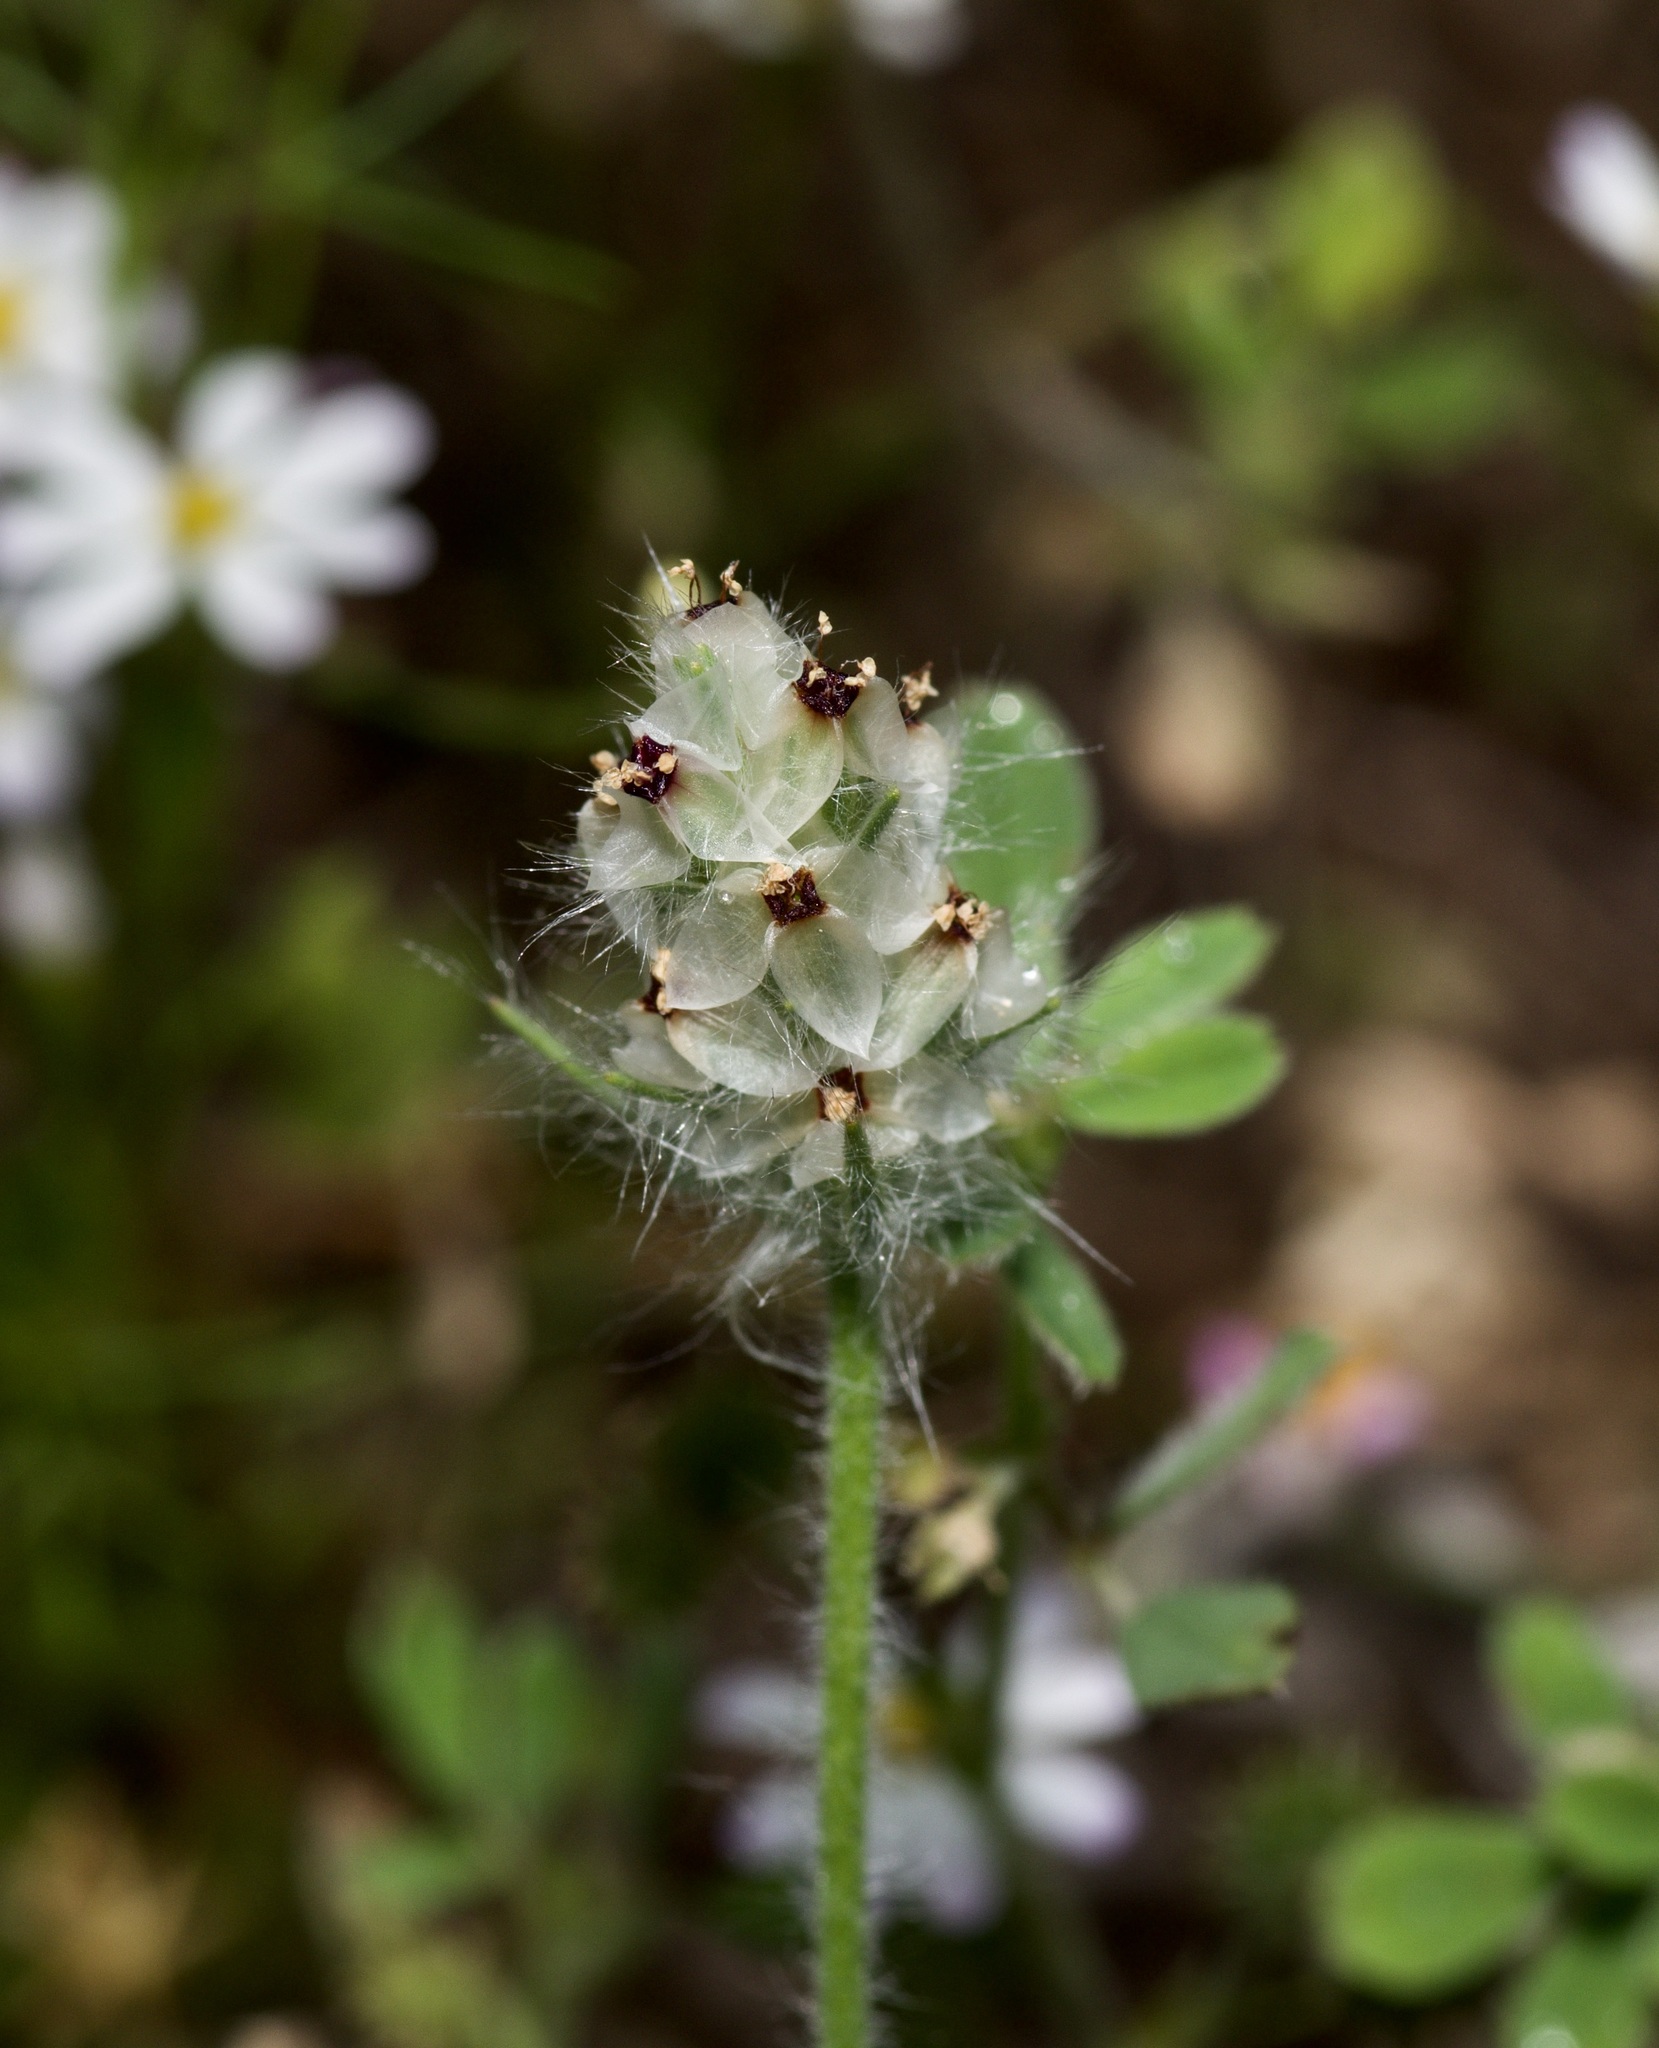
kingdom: Plantae
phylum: Tracheophyta
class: Magnoliopsida
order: Lamiales
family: Plantaginaceae
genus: Plantago
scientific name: Plantago helleri
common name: Heller's plantain
